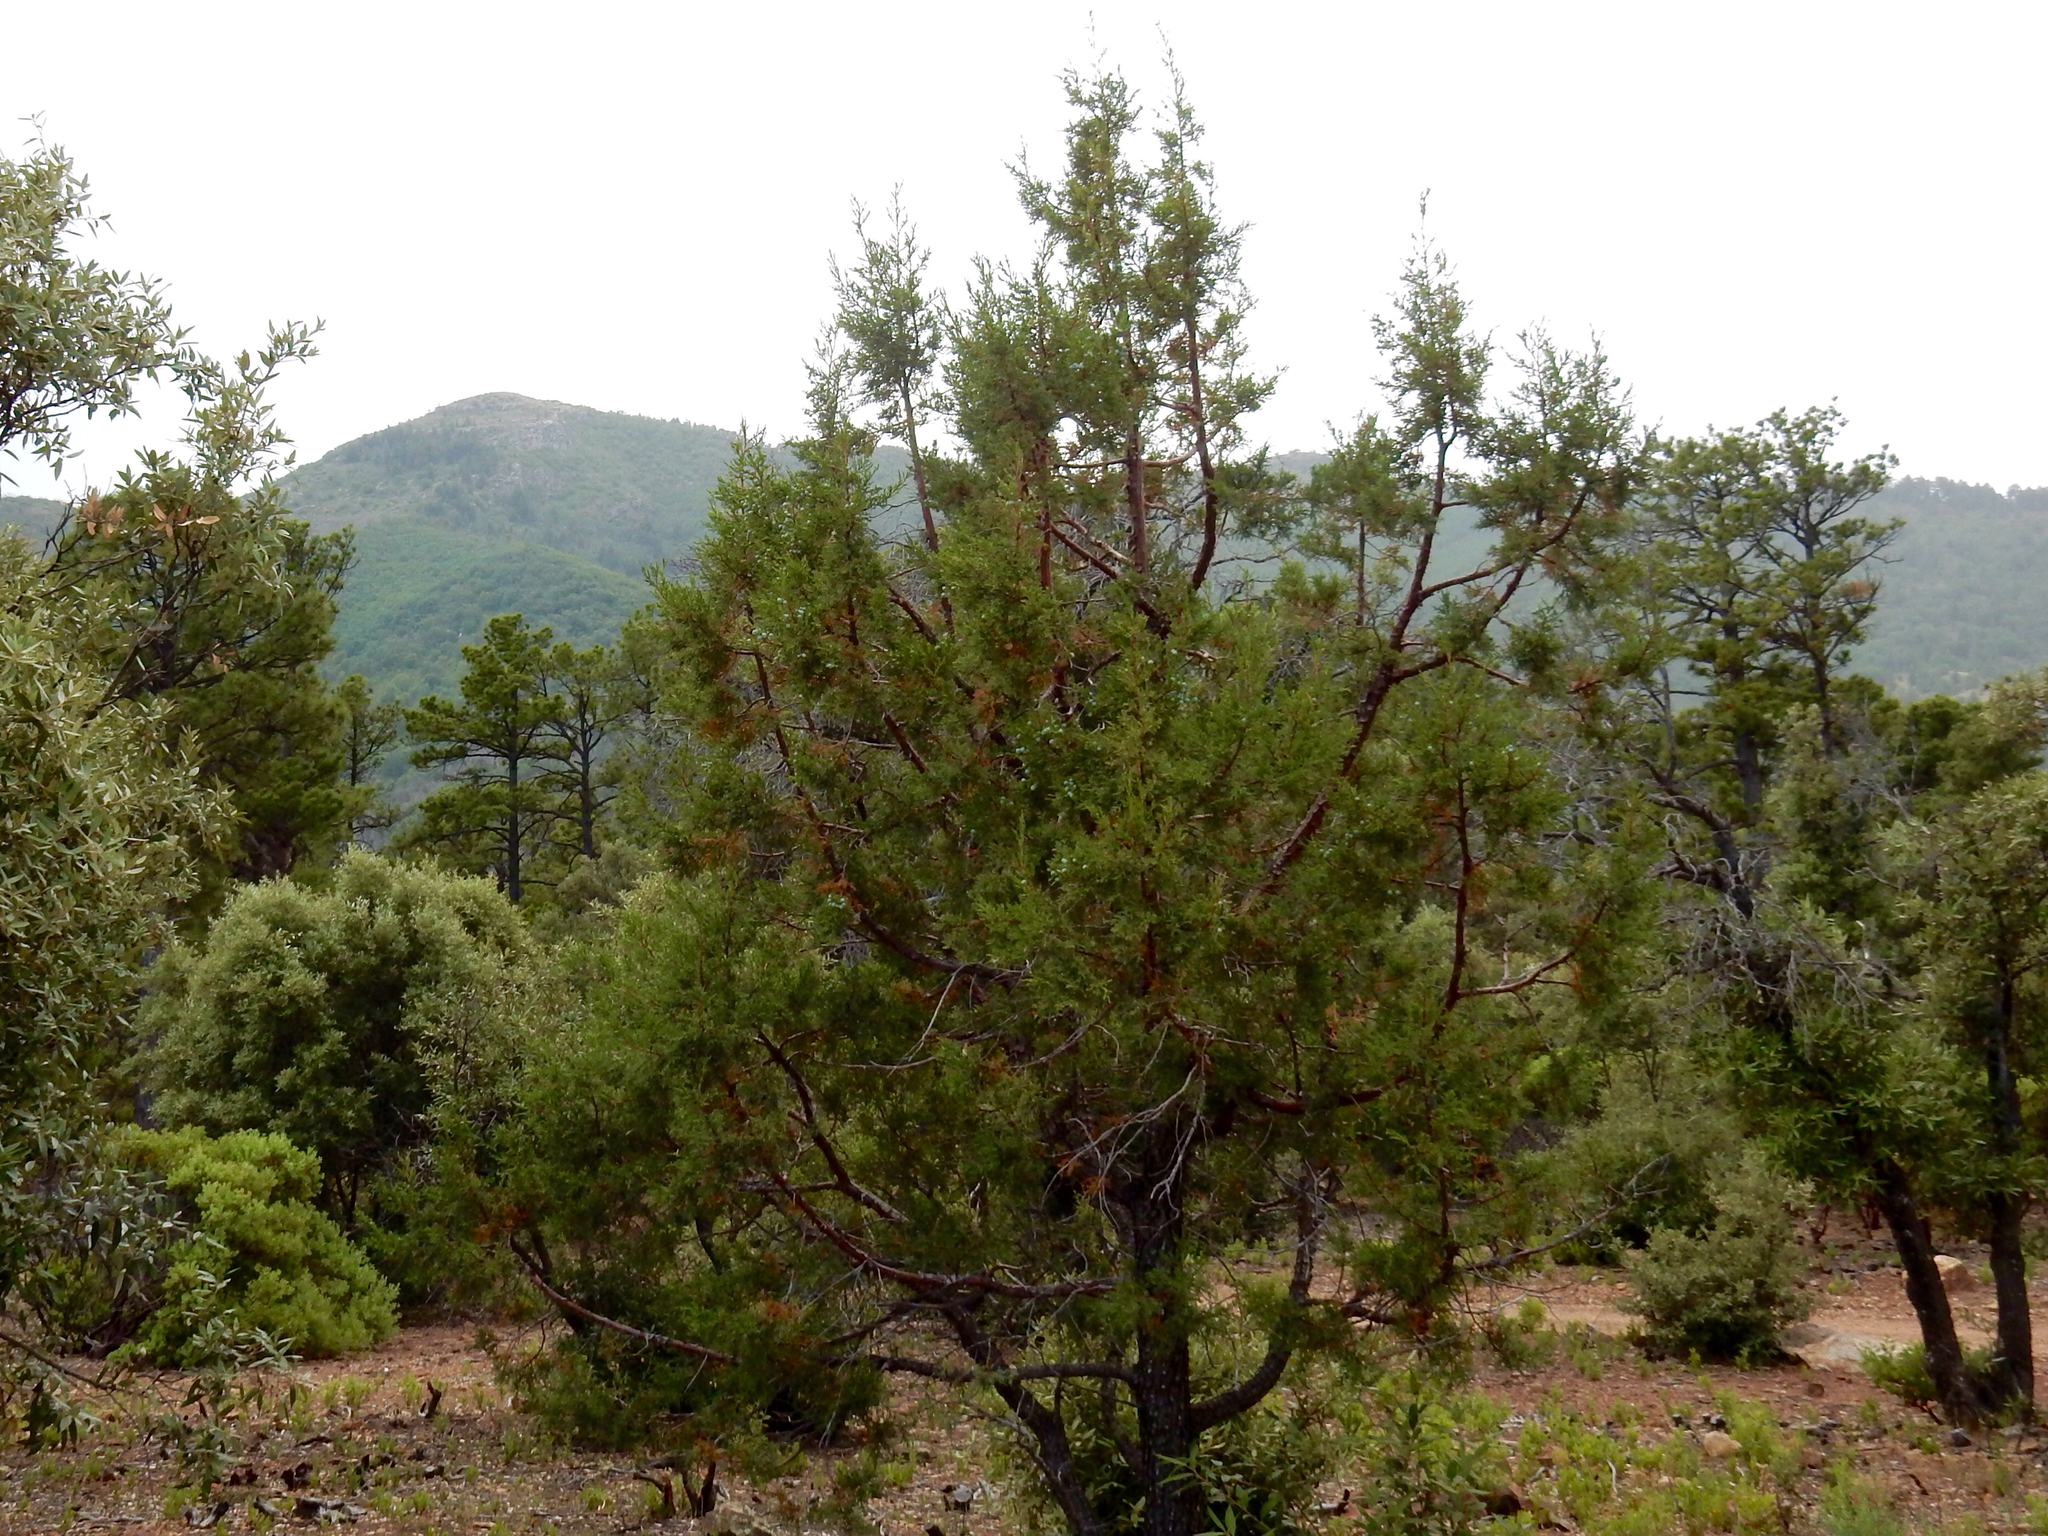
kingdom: Plantae
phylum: Tracheophyta
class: Pinopsida
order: Pinales
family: Cupressaceae
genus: Juniperus
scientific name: Juniperus deppeana
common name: Alligator juniper
